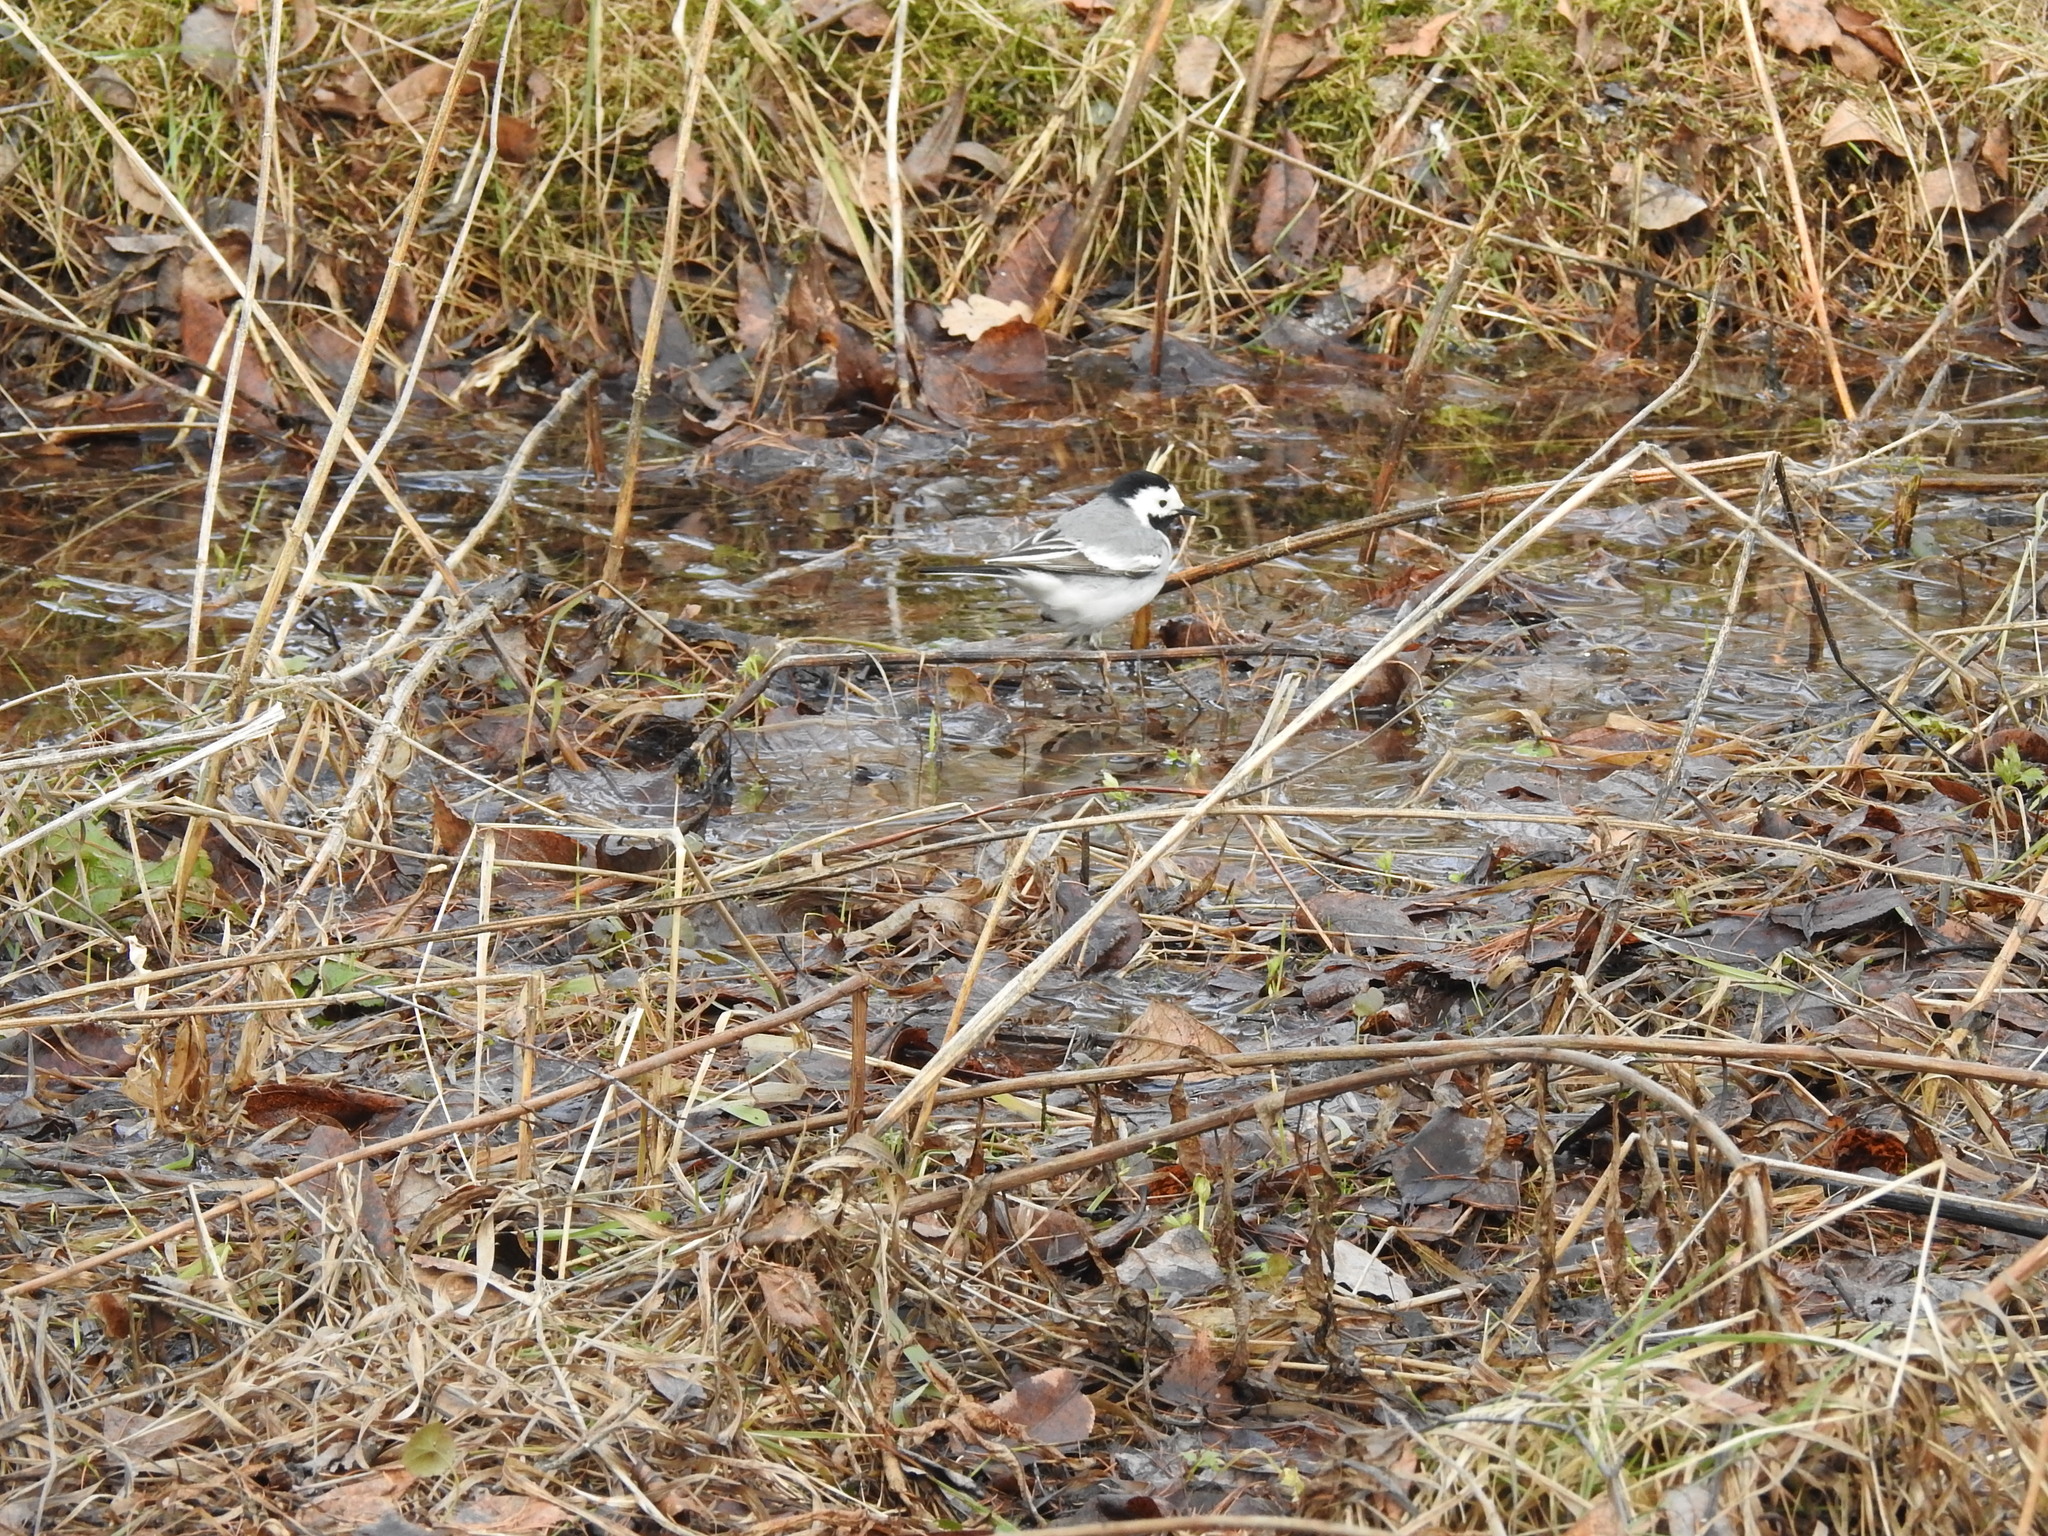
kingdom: Animalia
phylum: Chordata
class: Aves
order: Passeriformes
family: Motacillidae
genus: Motacilla
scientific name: Motacilla alba
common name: White wagtail
